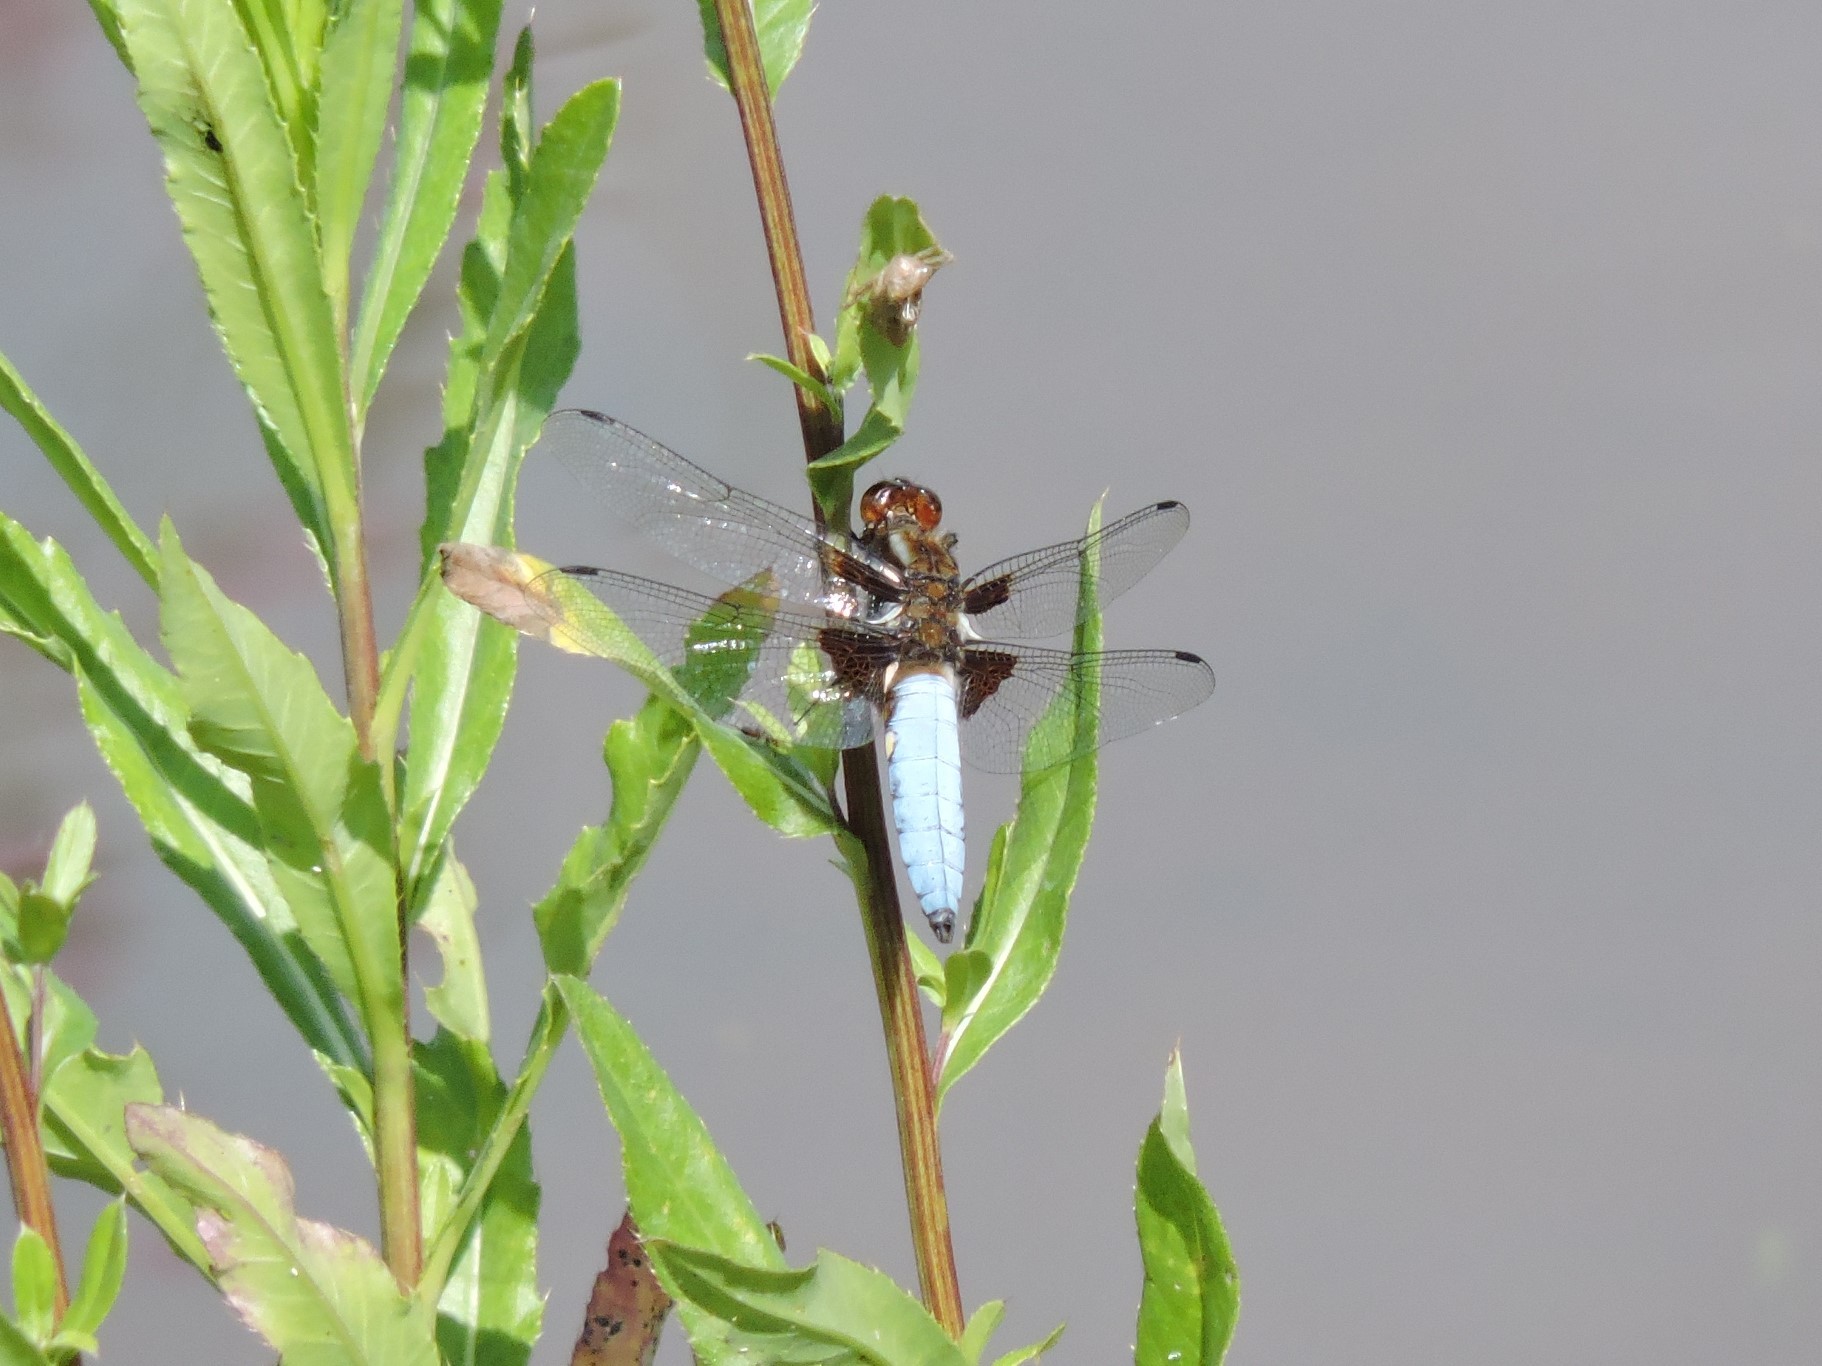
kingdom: Animalia
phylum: Arthropoda
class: Insecta
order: Odonata
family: Libellulidae
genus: Libellula
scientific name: Libellula depressa
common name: Broad-bodied chaser
